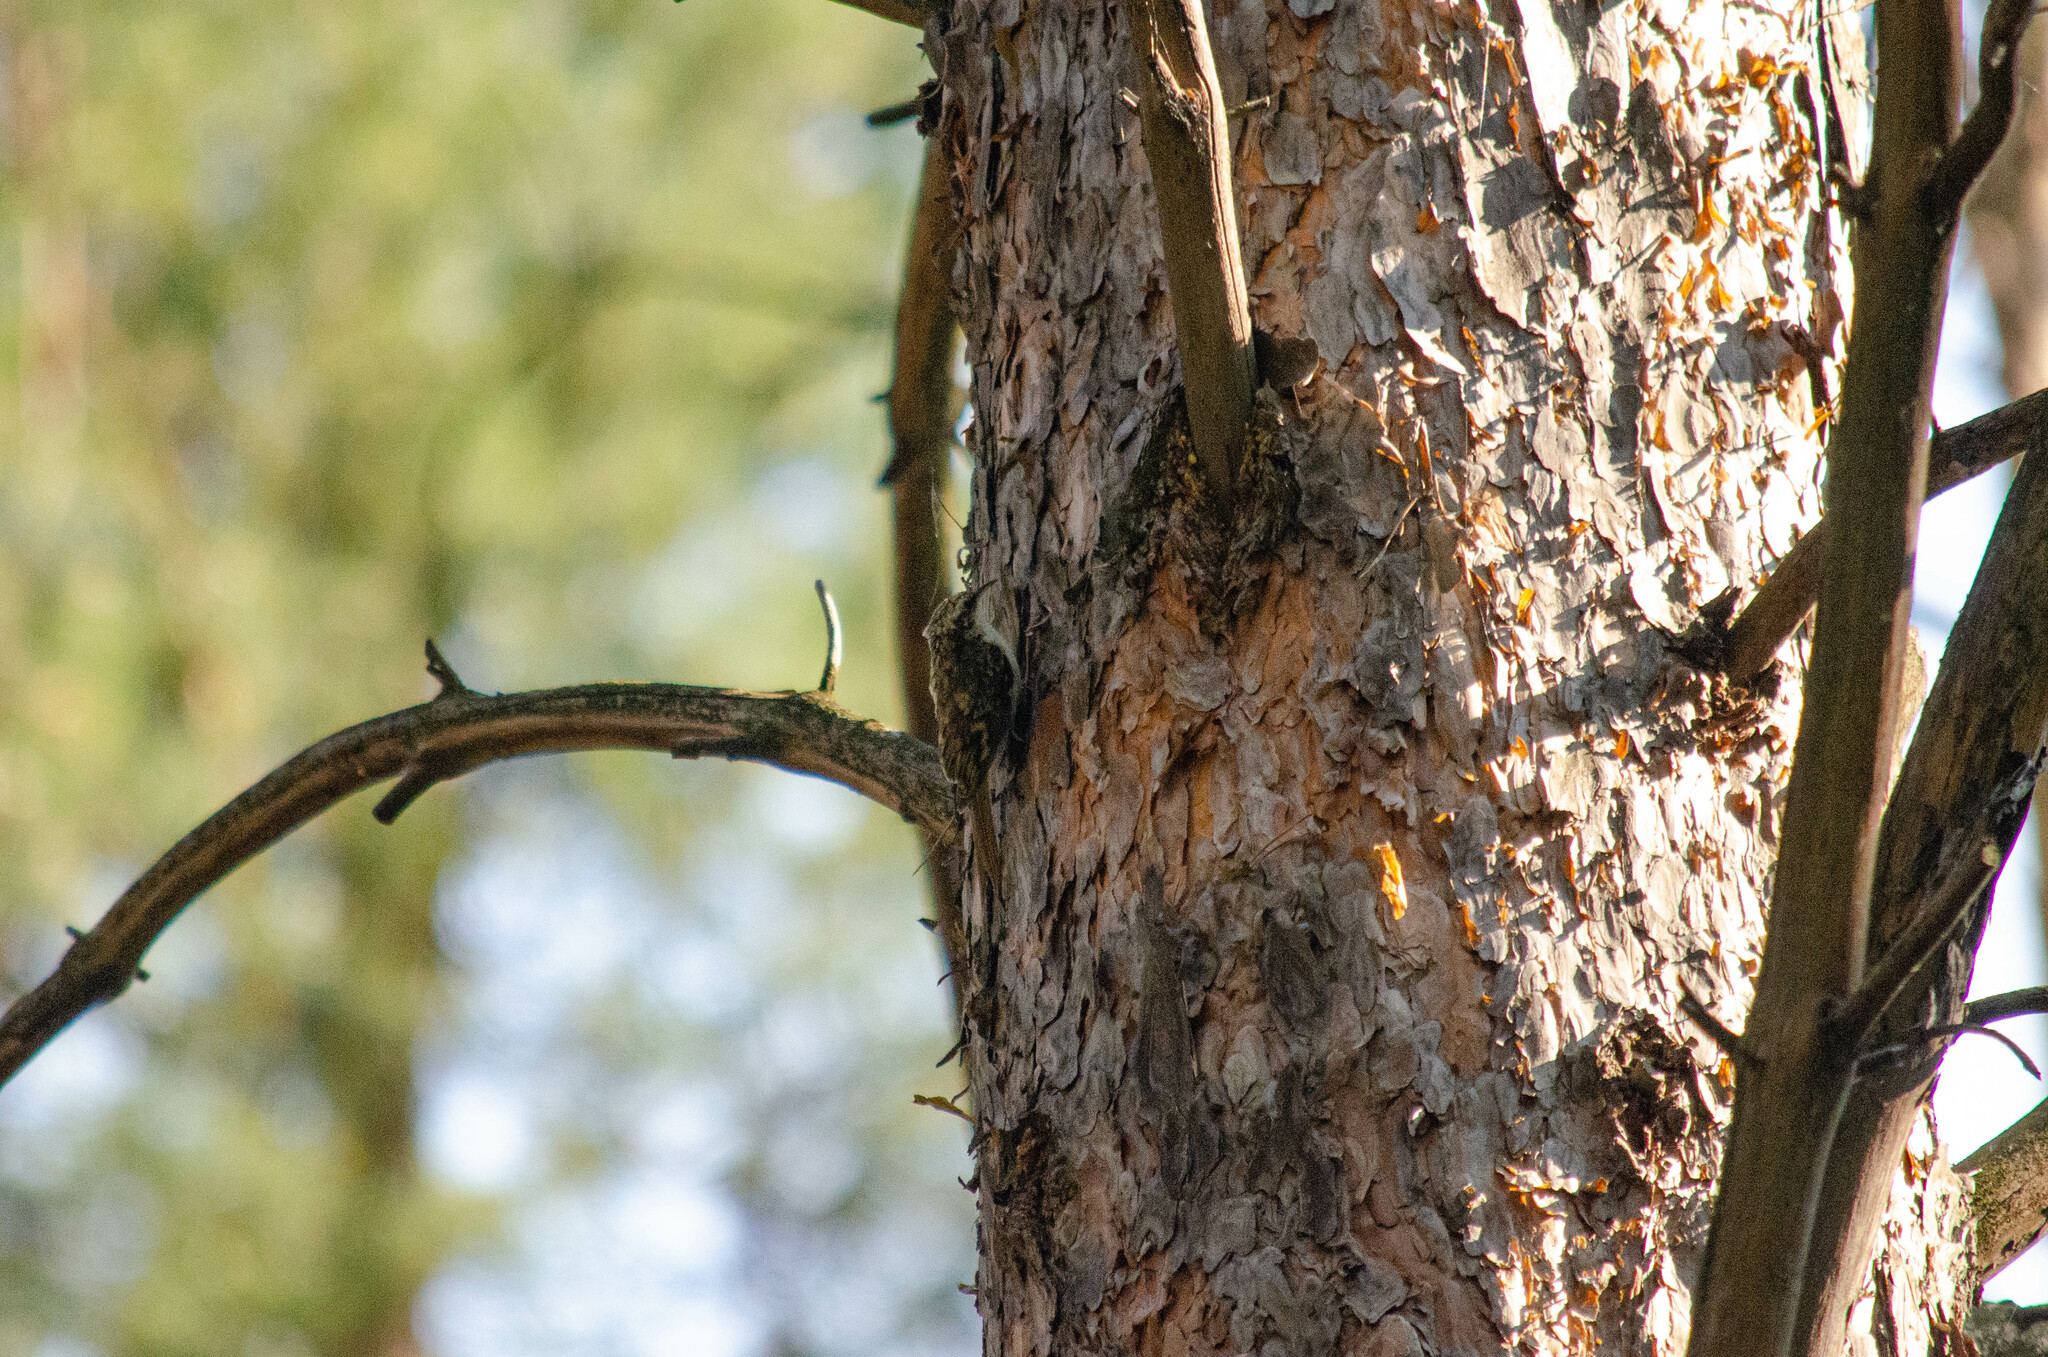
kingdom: Animalia
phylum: Chordata
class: Aves
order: Passeriformes
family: Certhiidae
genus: Certhia
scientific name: Certhia familiaris
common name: Eurasian treecreeper
